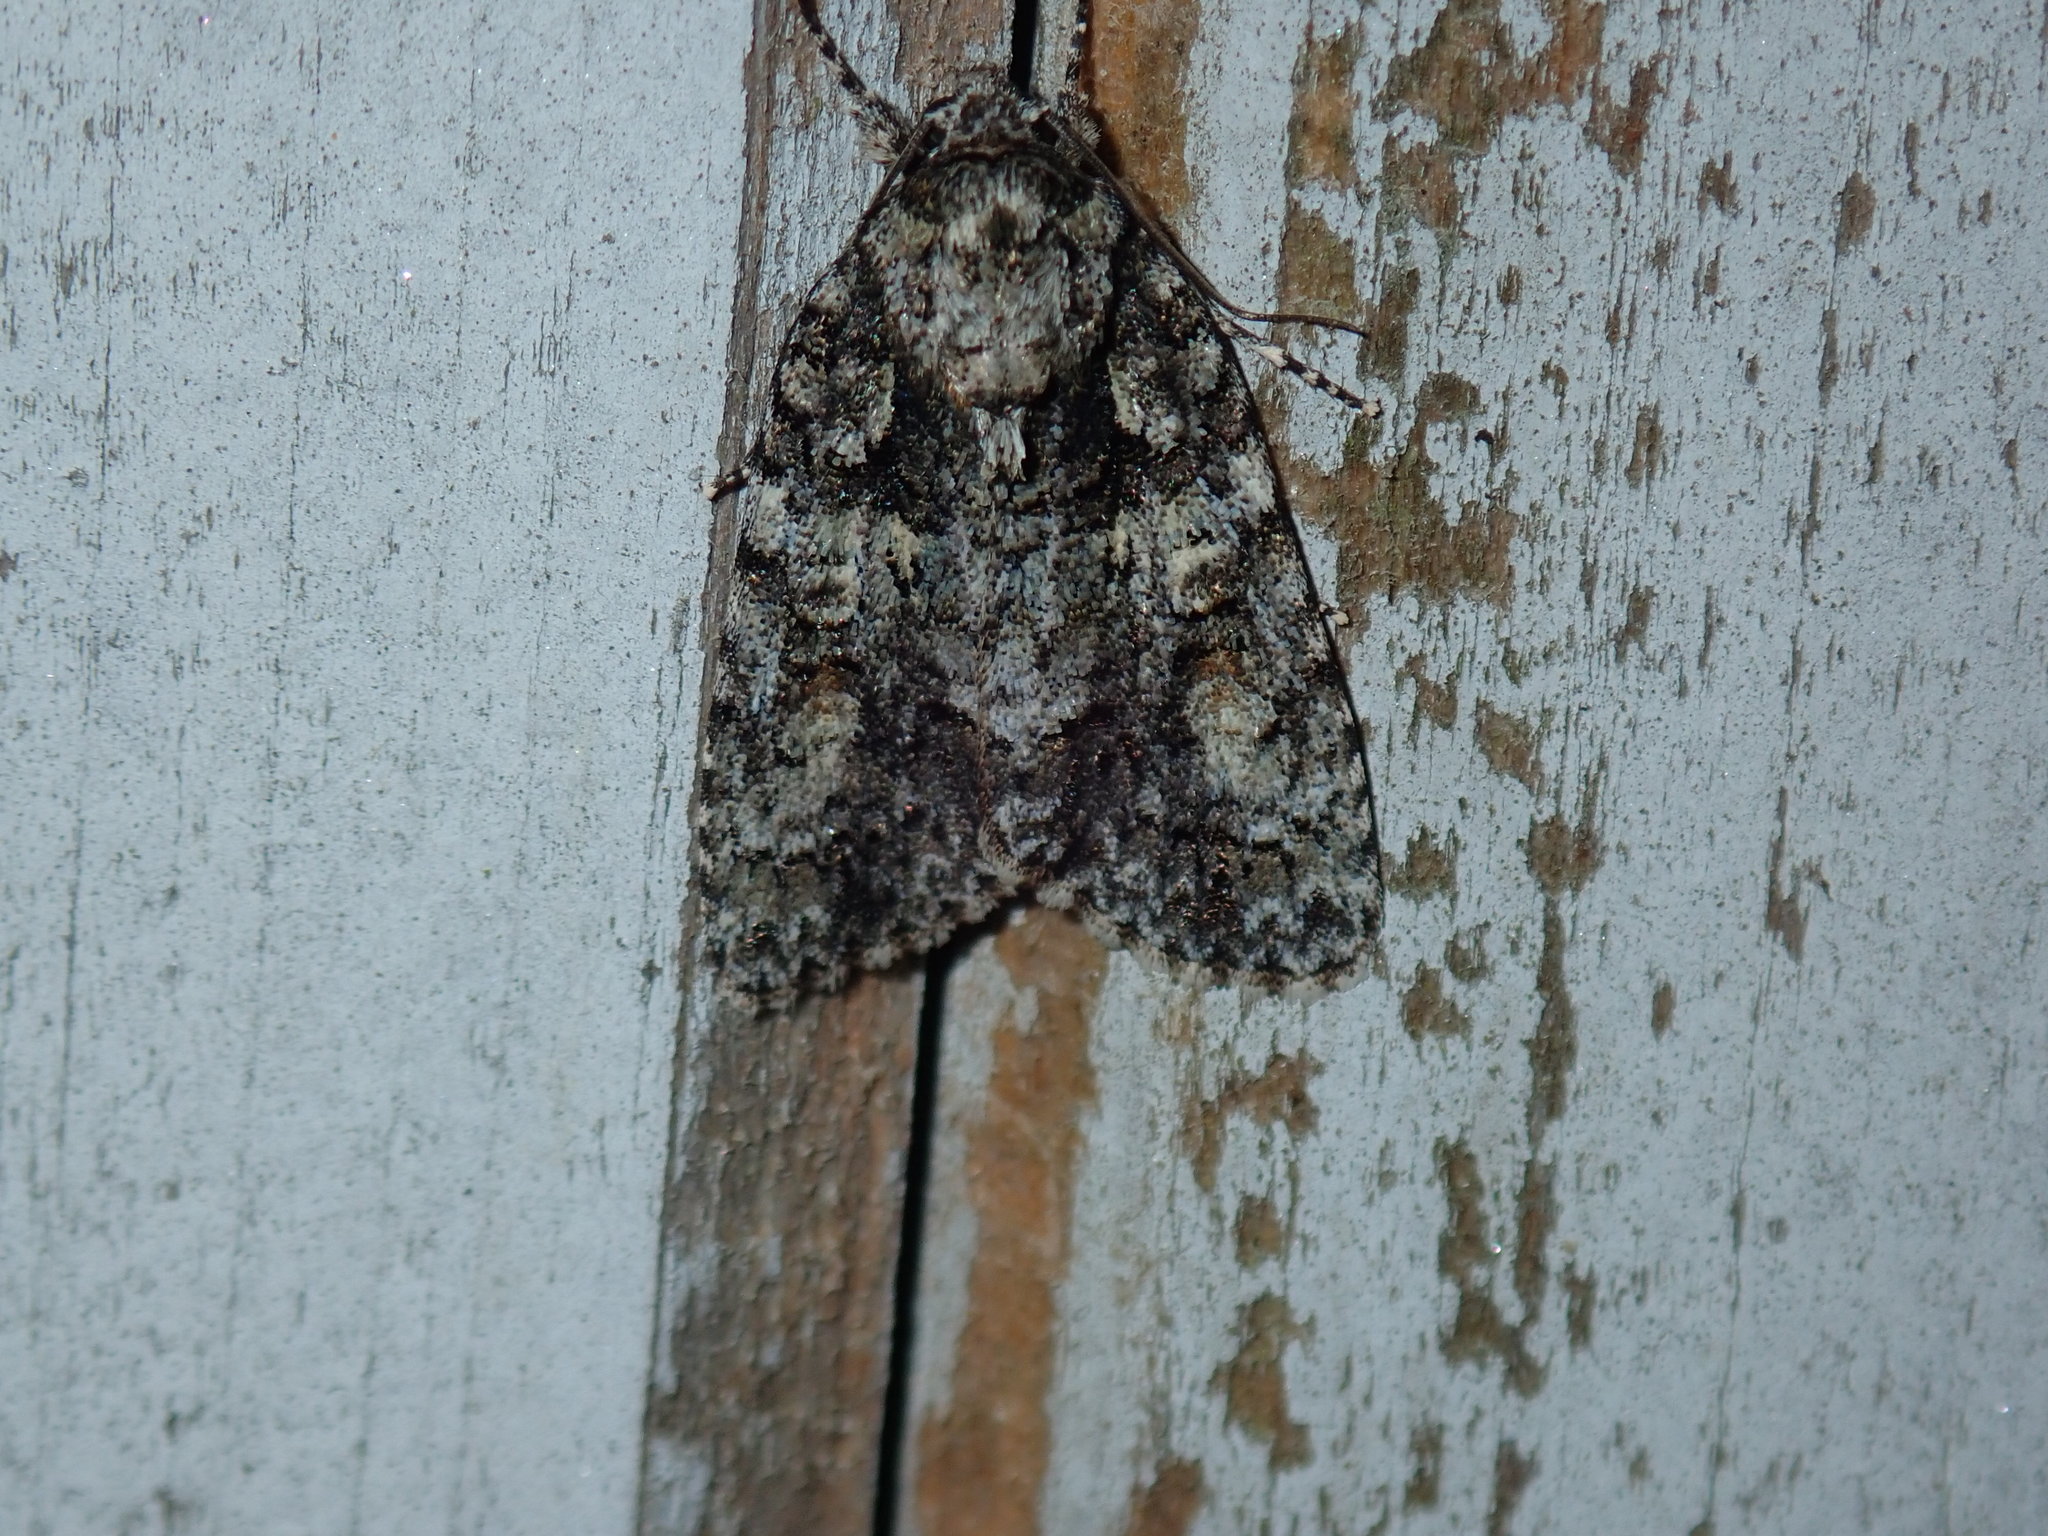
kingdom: Animalia
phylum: Arthropoda
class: Insecta
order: Lepidoptera
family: Noctuidae
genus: Acronicta
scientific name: Acronicta increta
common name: Eclipsed oak dagger
